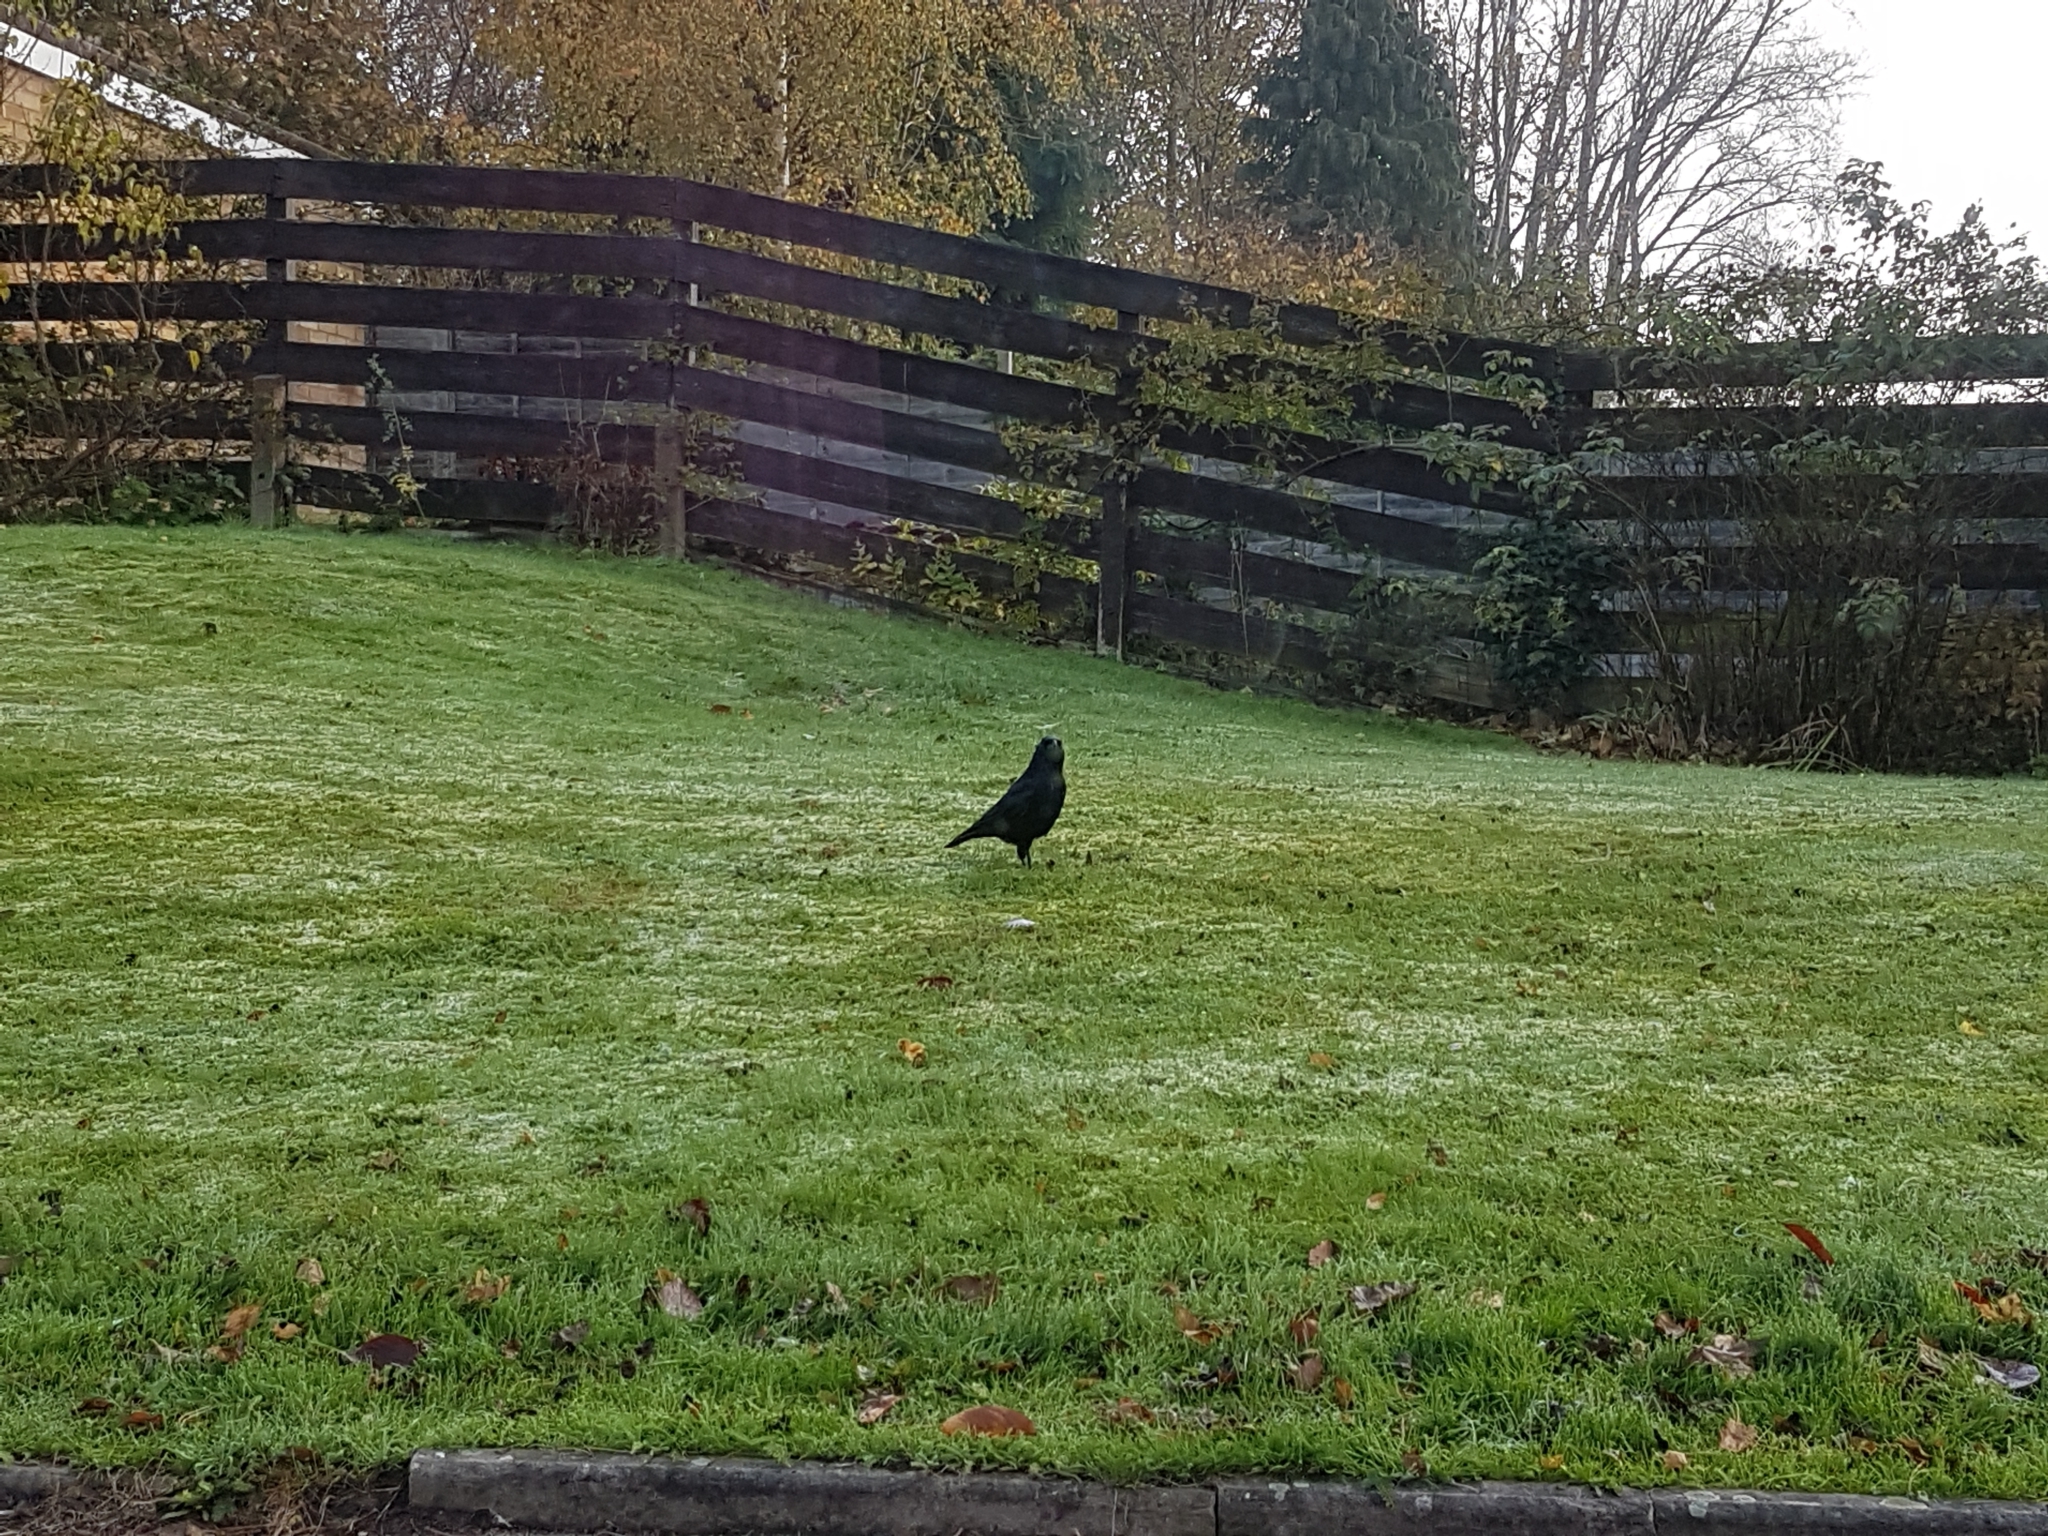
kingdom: Animalia
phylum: Chordata
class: Aves
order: Passeriformes
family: Corvidae
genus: Corvus
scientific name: Corvus corone
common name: Carrion crow
